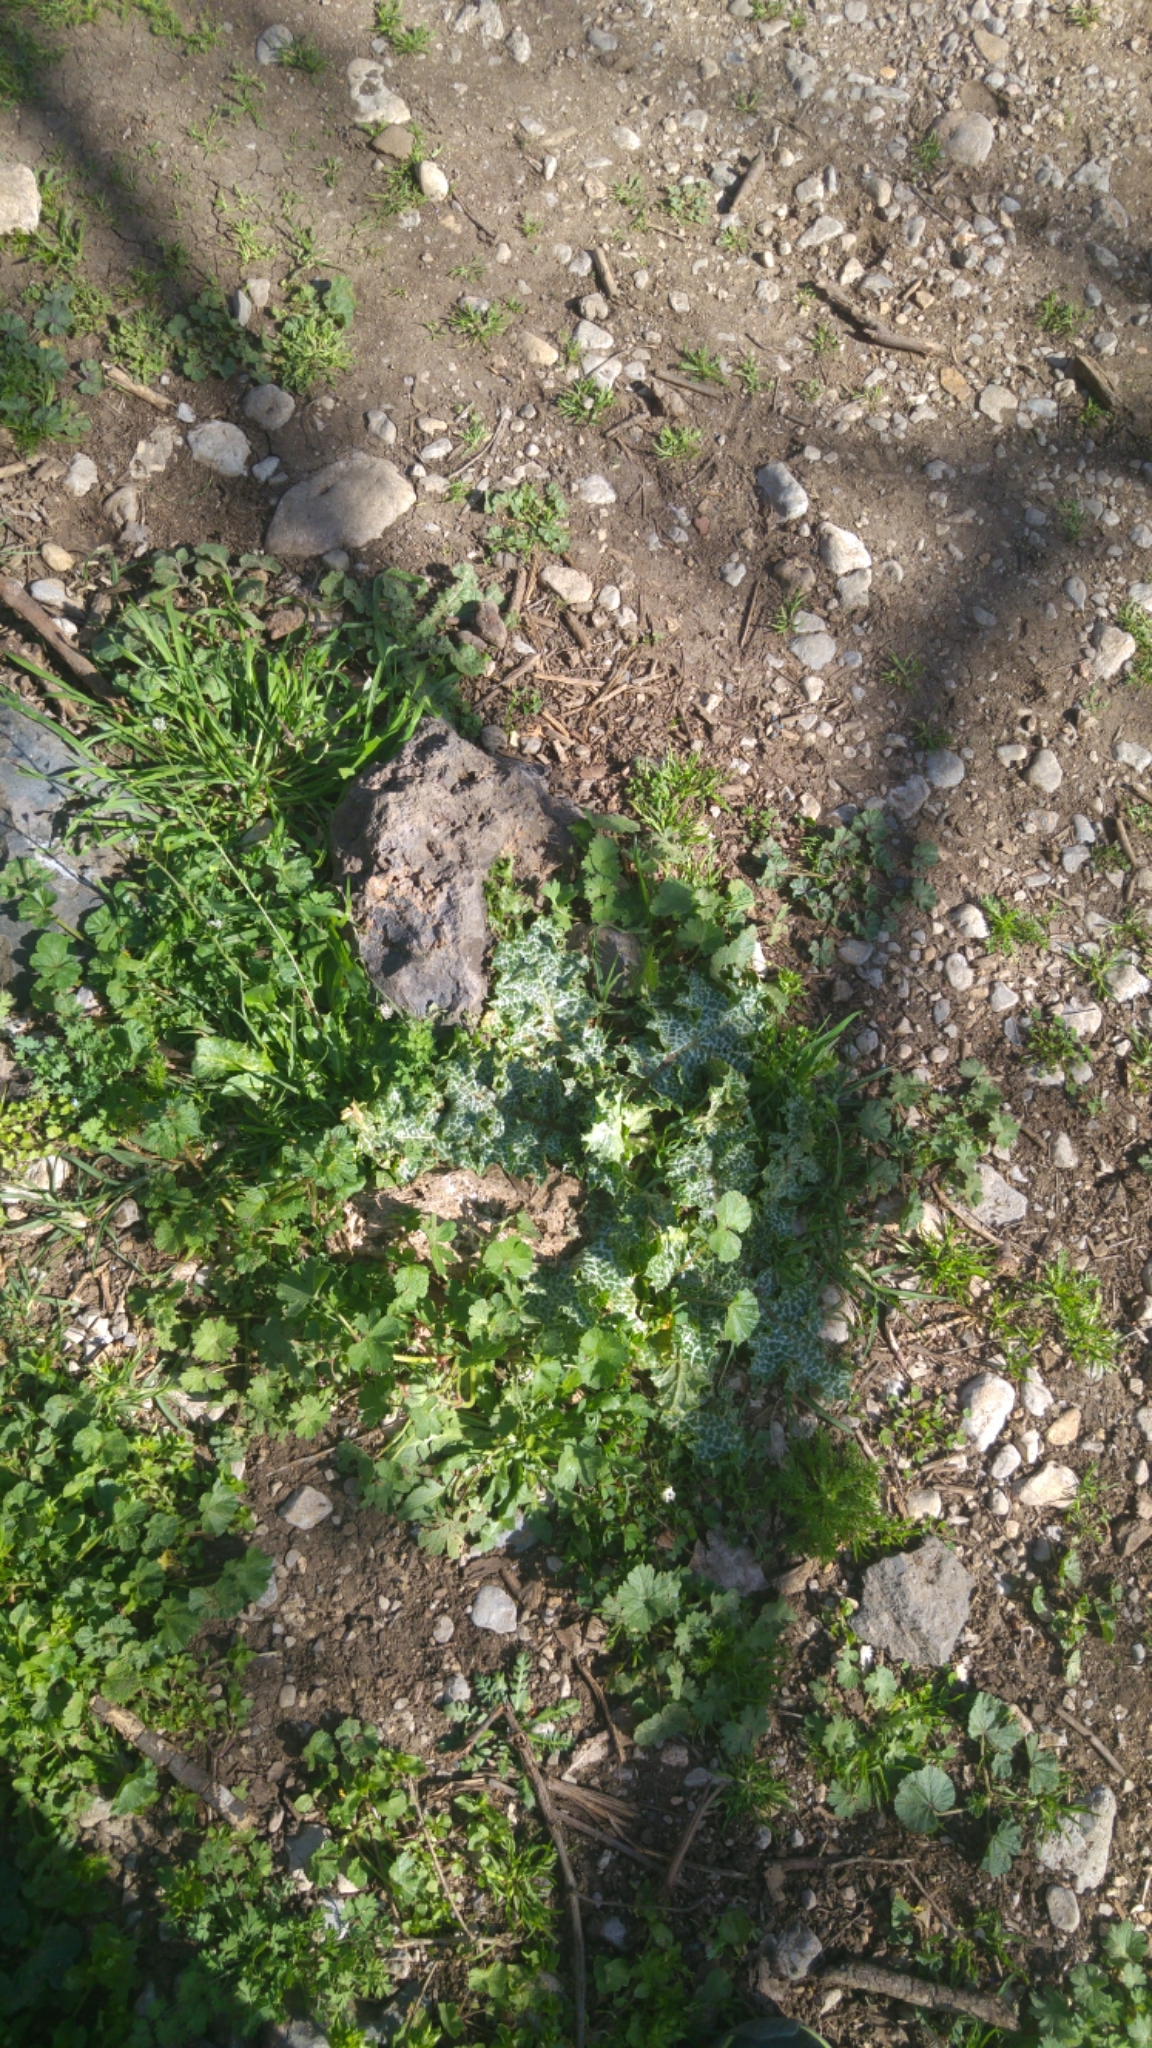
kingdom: Plantae
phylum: Tracheophyta
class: Magnoliopsida
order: Asterales
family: Asteraceae
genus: Silybum
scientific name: Silybum marianum
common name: Milk thistle
